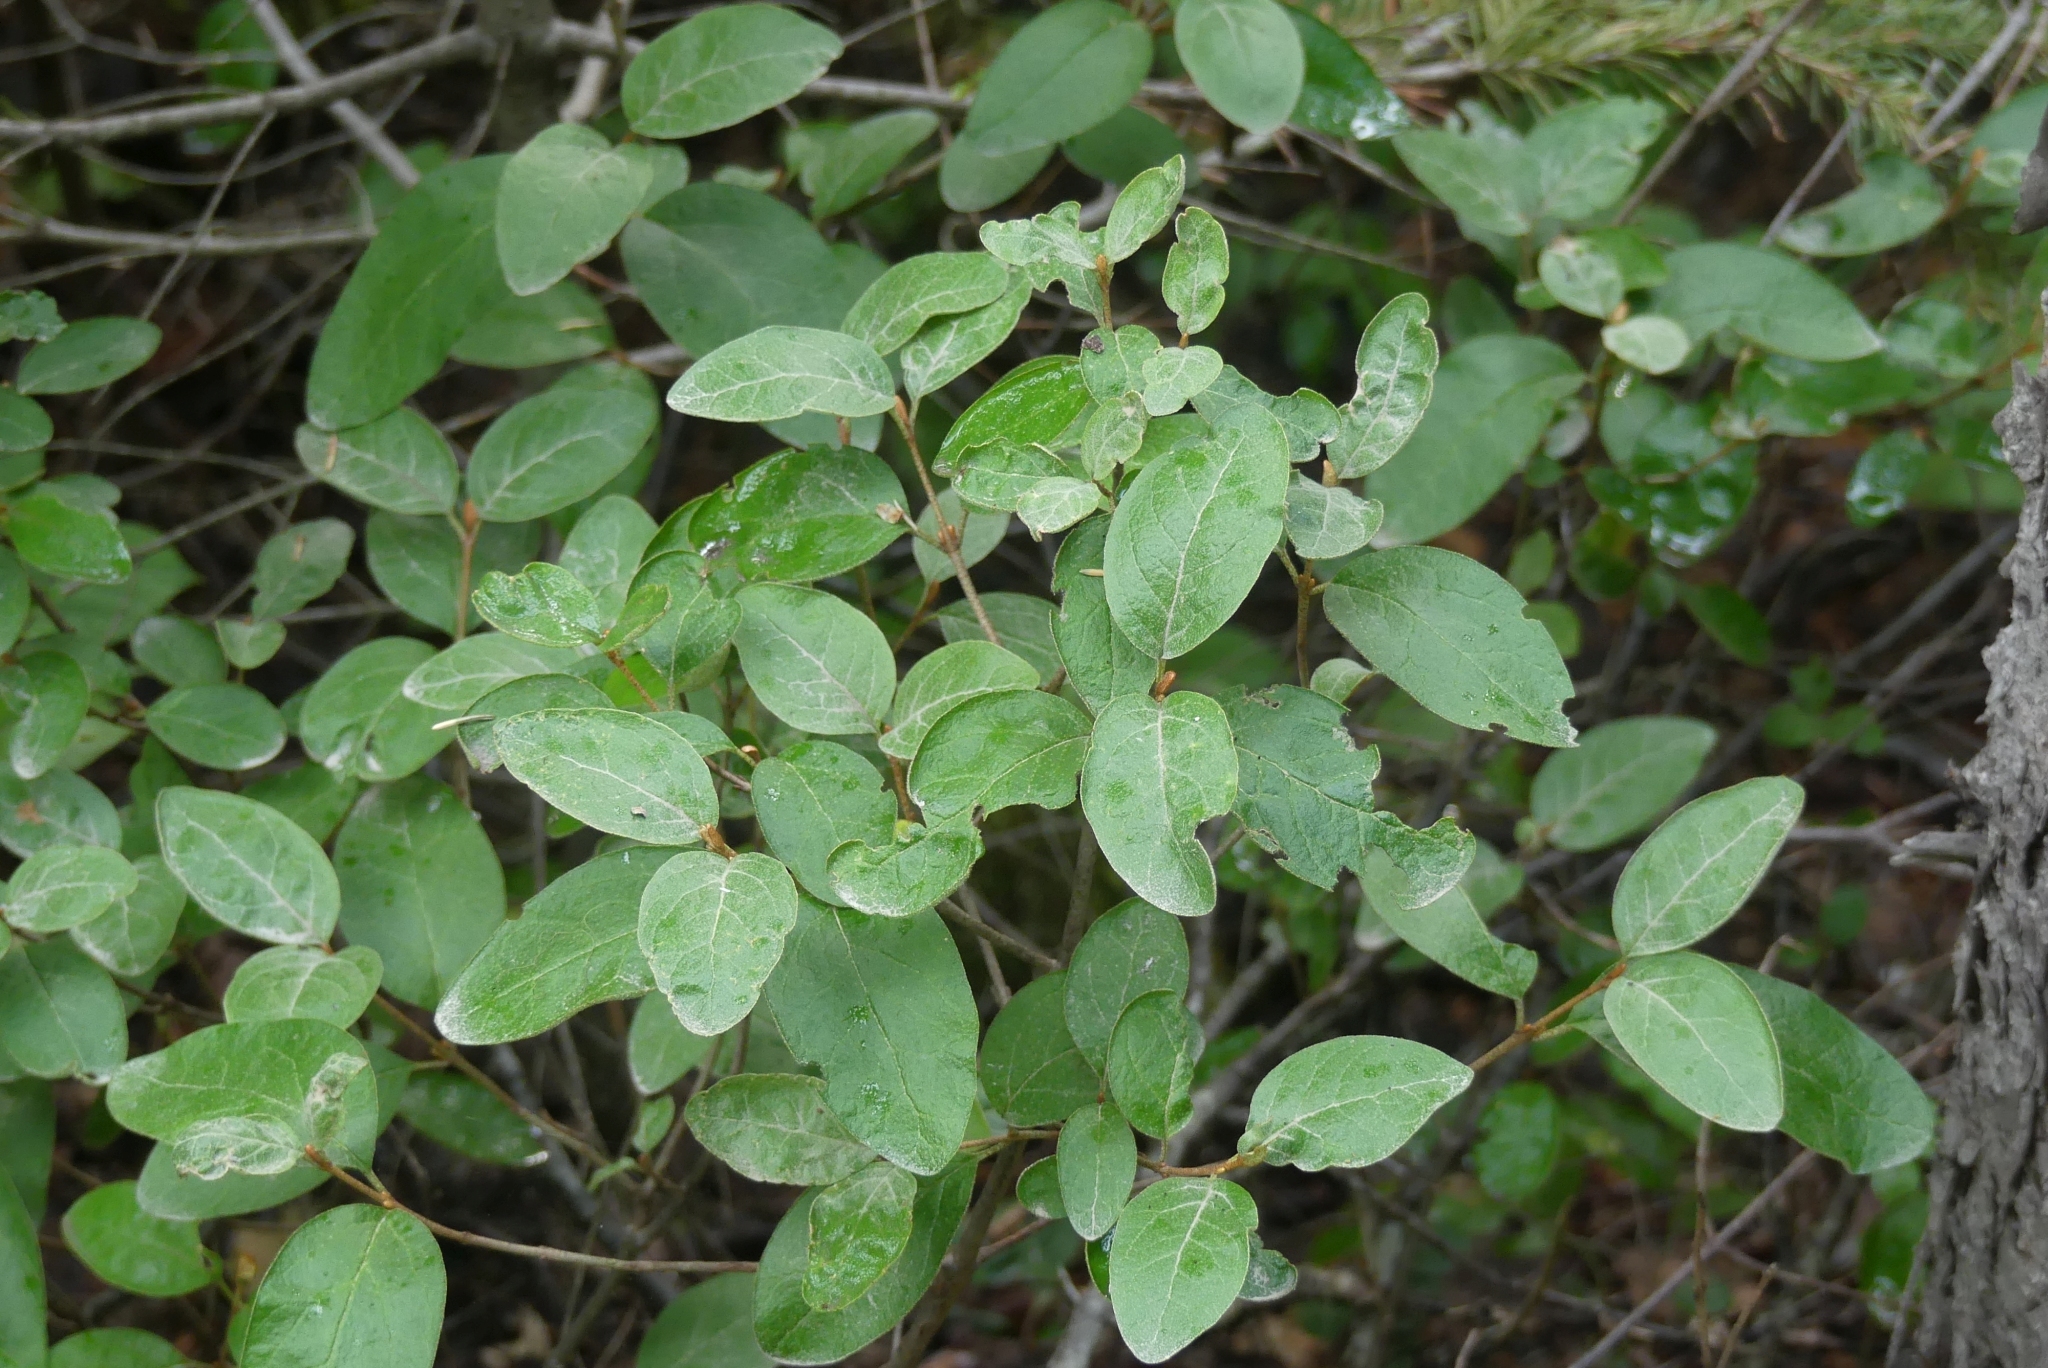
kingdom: Plantae
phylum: Tracheophyta
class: Magnoliopsida
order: Rosales
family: Elaeagnaceae
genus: Shepherdia
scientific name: Shepherdia canadensis
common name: Soapberry
